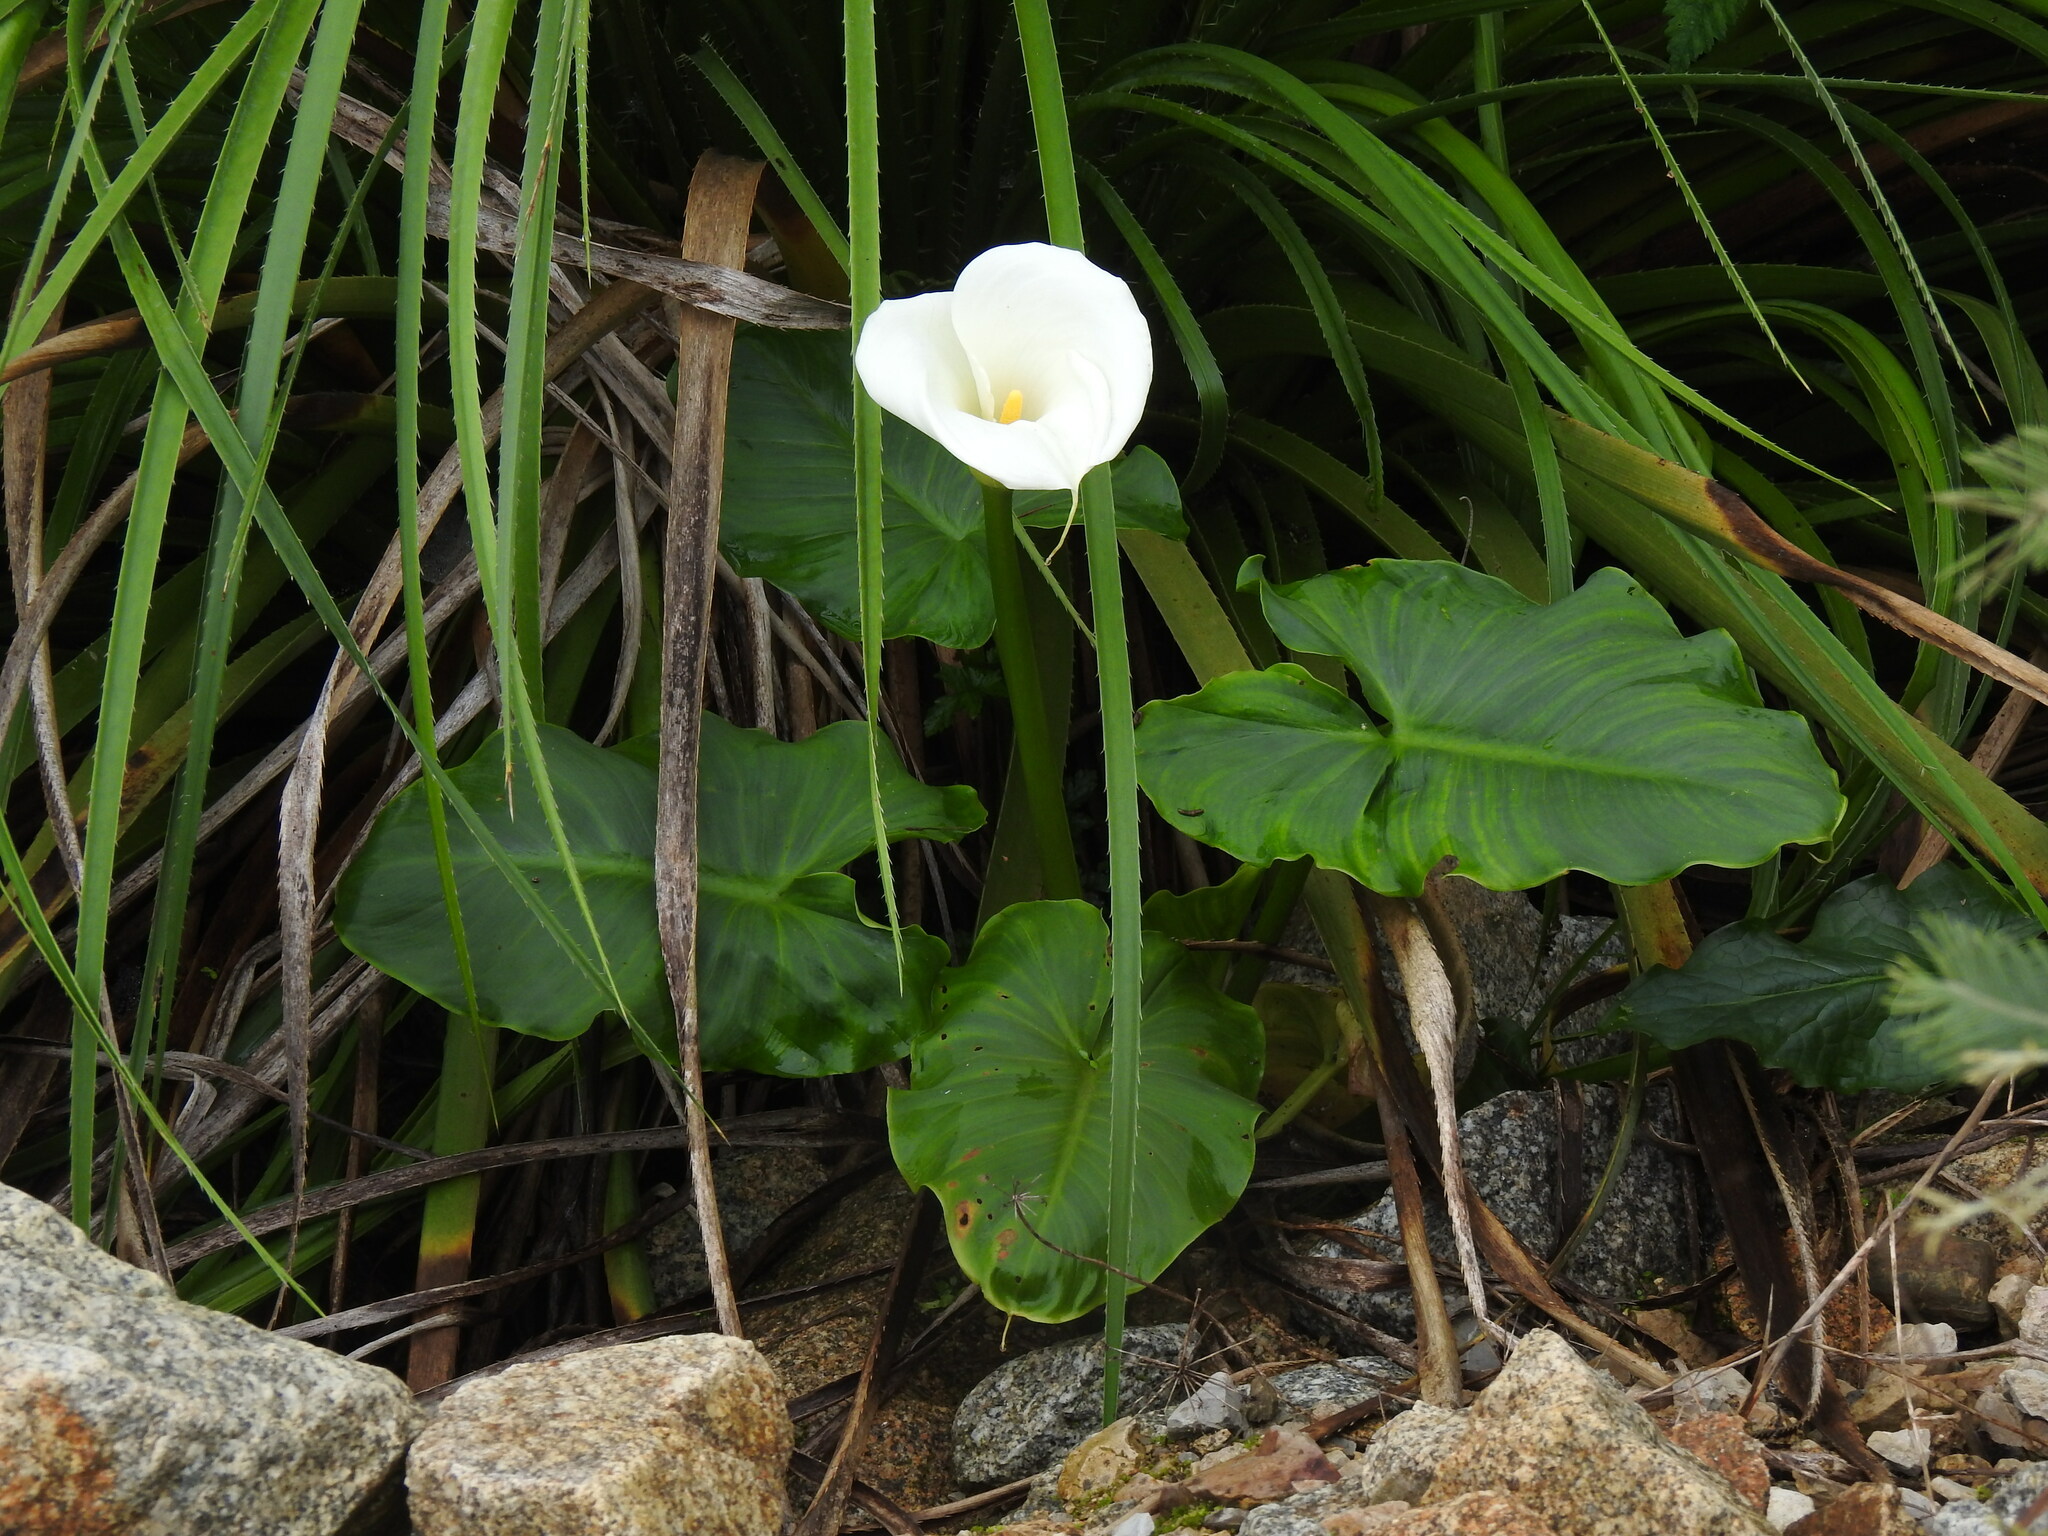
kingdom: Plantae
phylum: Tracheophyta
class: Liliopsida
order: Alismatales
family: Araceae
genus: Zantedeschia
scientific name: Zantedeschia aethiopica
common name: Altar-lily
